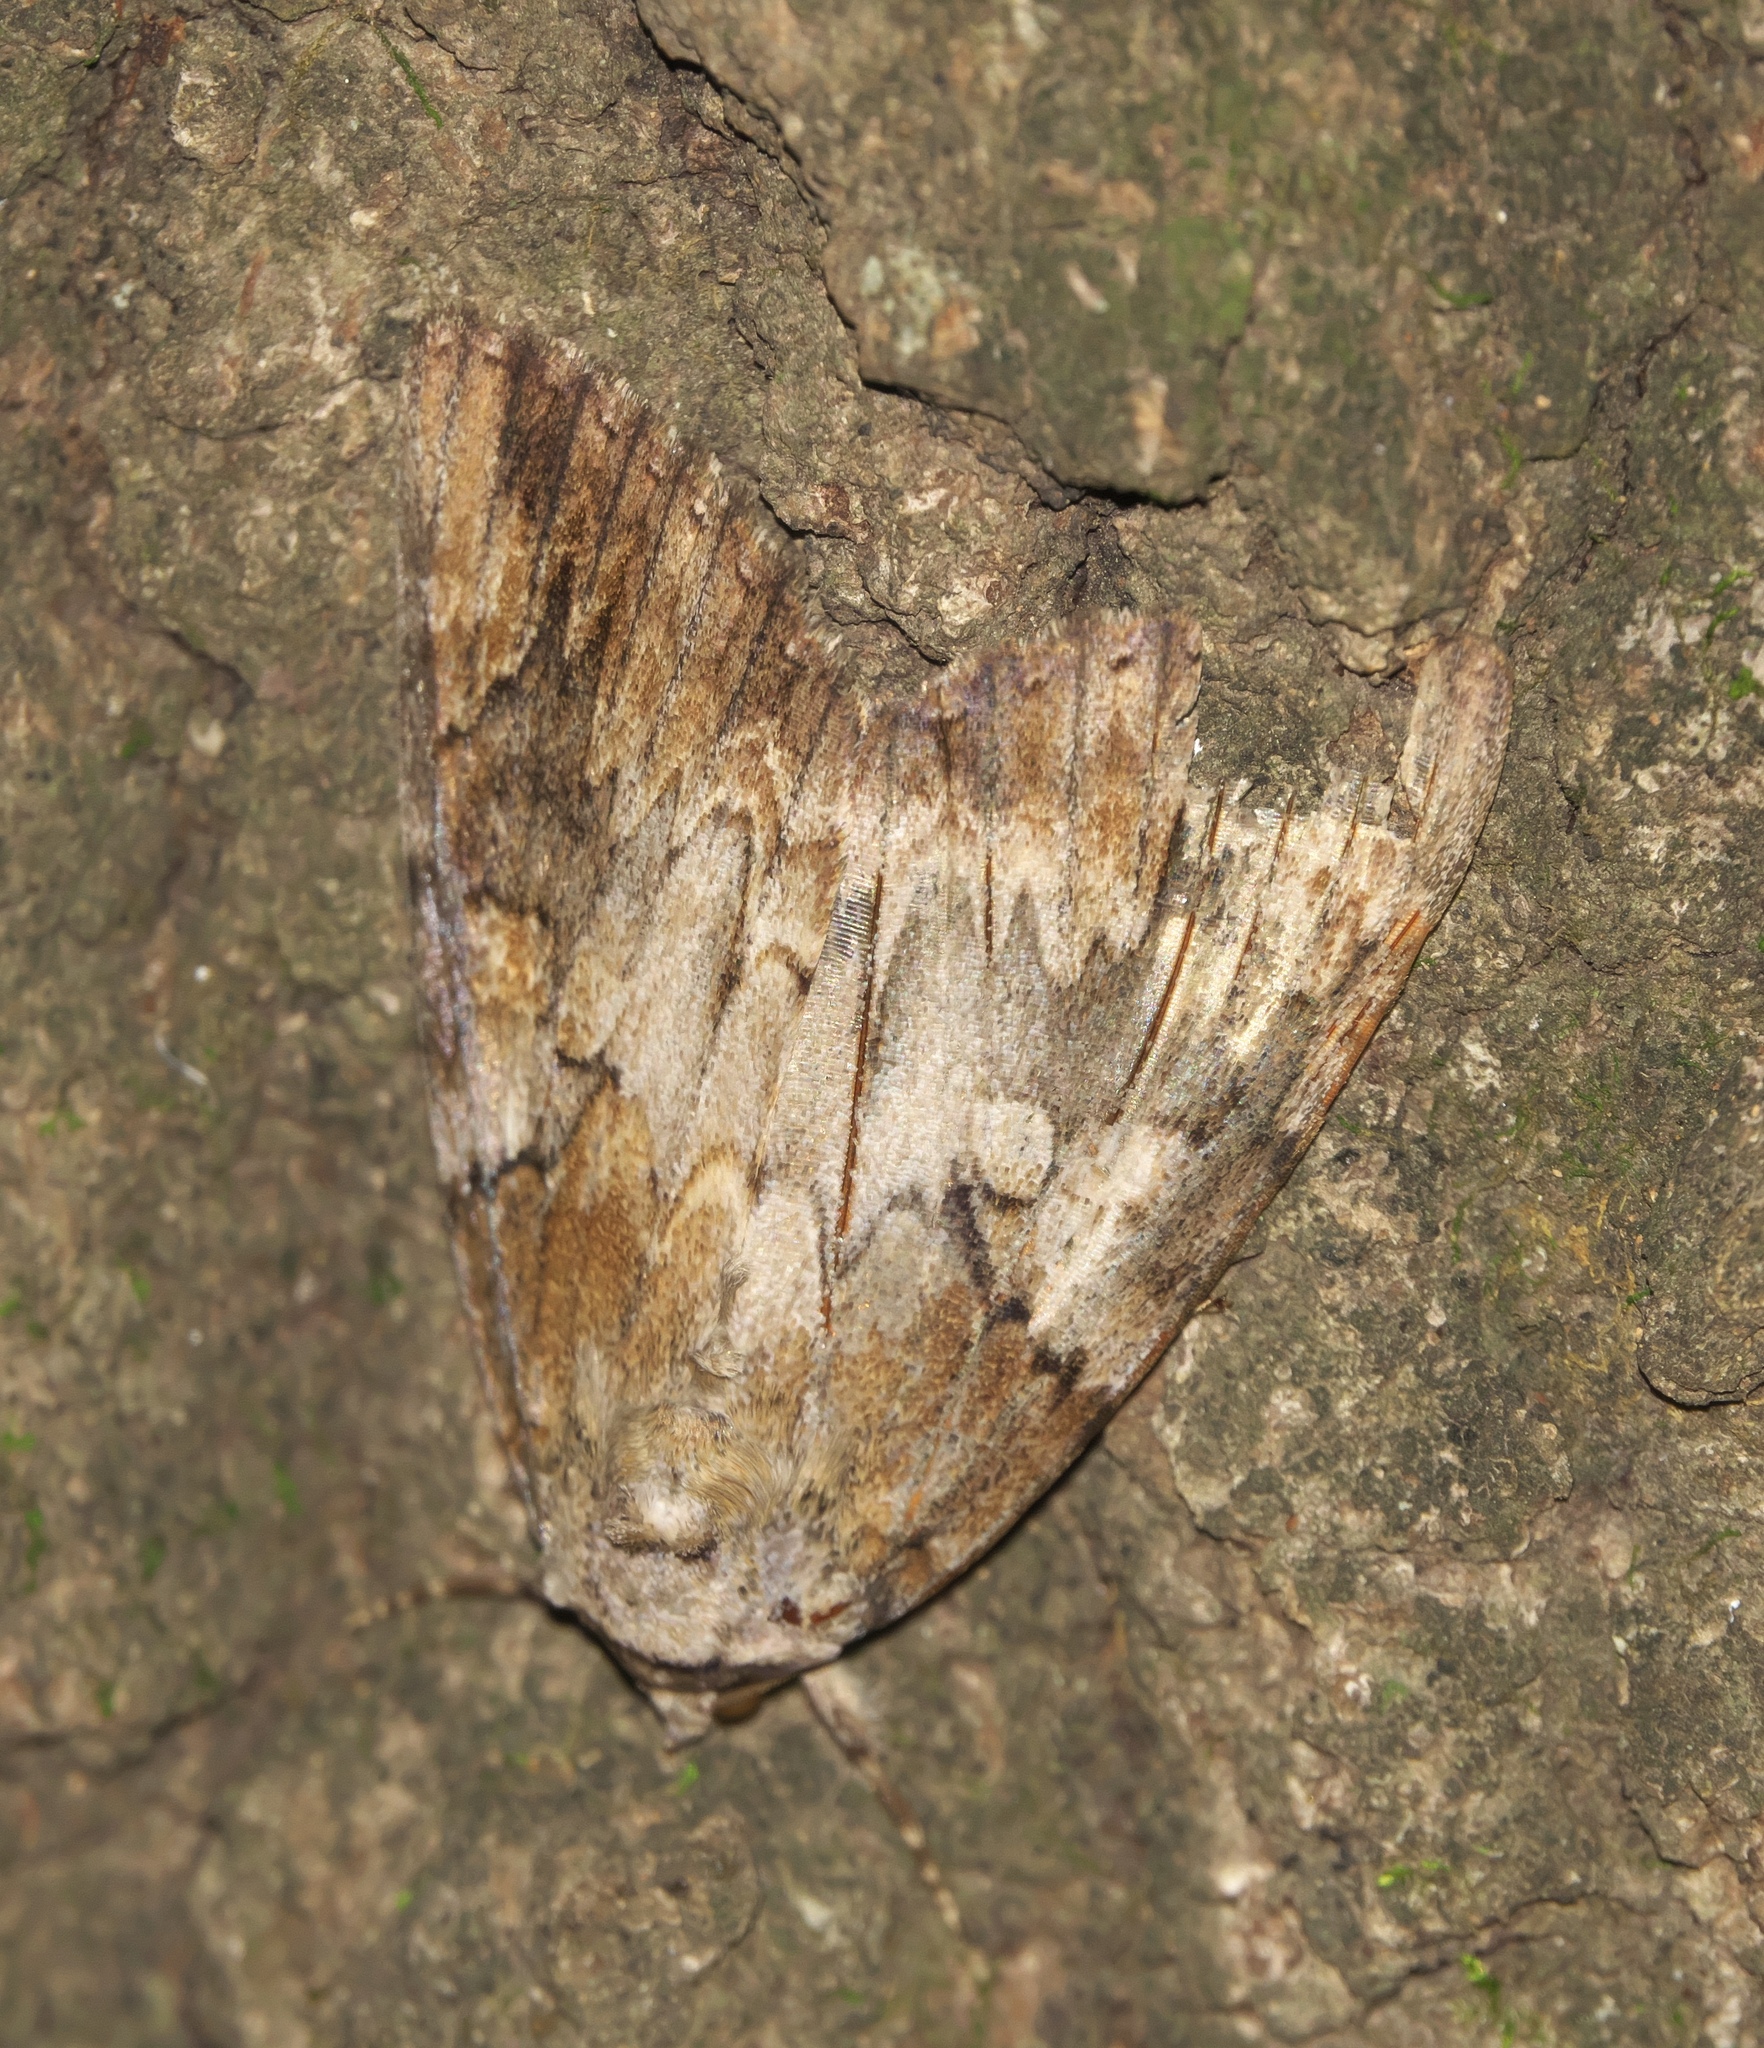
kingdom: Animalia
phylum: Arthropoda
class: Insecta
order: Lepidoptera
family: Erebidae
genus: Catocala
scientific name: Catocala atocala
